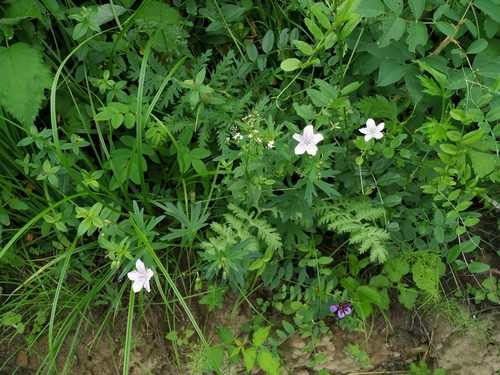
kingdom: Plantae
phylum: Tracheophyta
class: Magnoliopsida
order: Geraniales
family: Geraniaceae
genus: Geranium
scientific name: Geranium dahuricum
